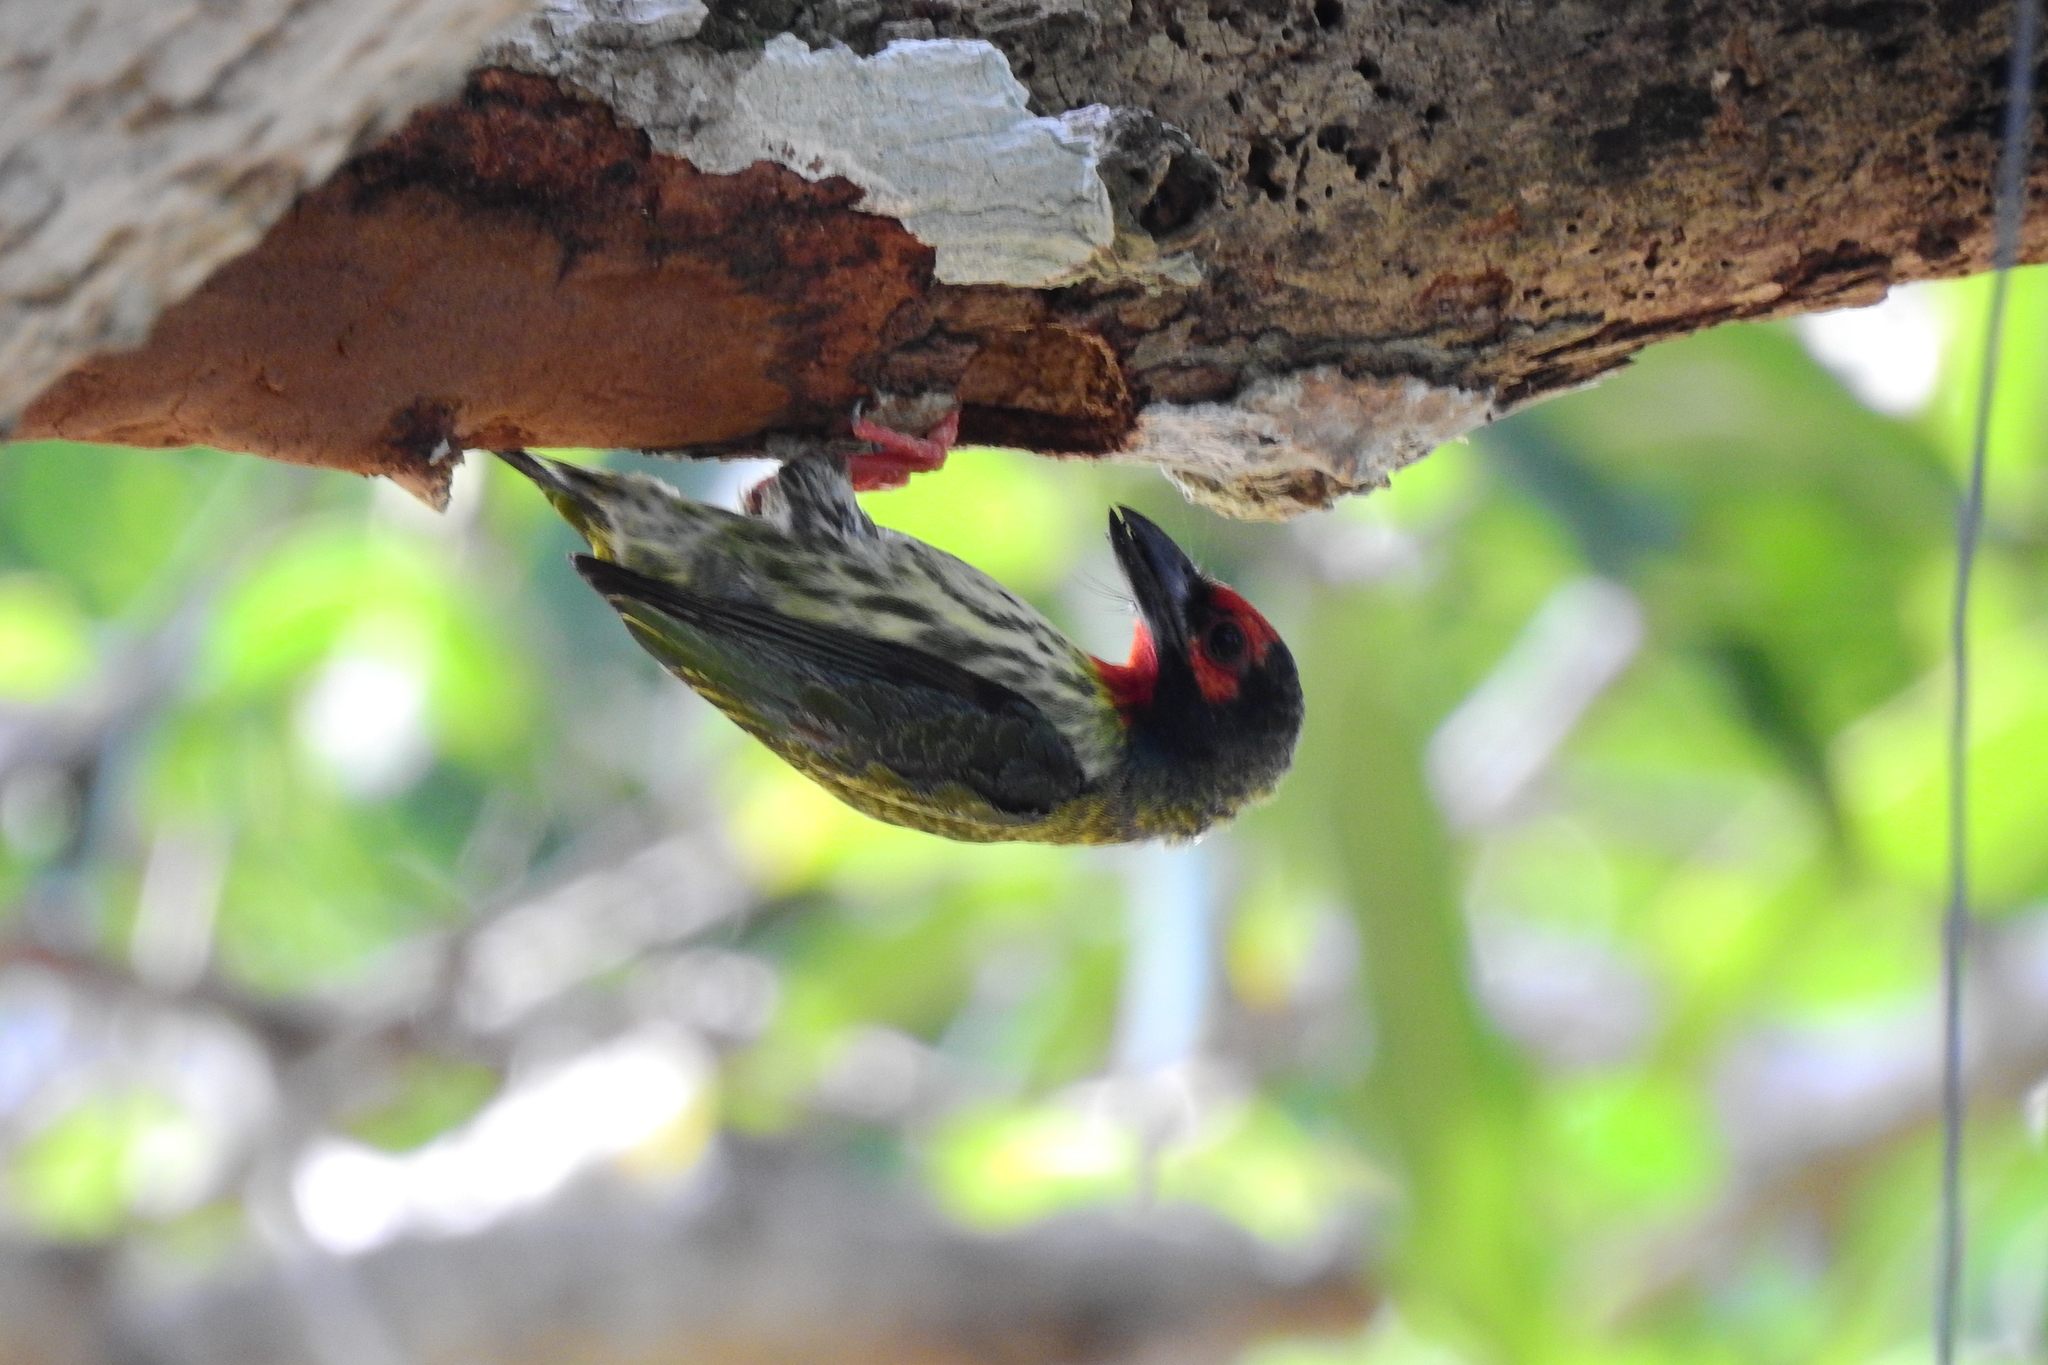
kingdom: Animalia
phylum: Chordata
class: Aves
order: Piciformes
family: Megalaimidae
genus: Psilopogon
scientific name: Psilopogon haemacephalus
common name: Coppersmith barbet
